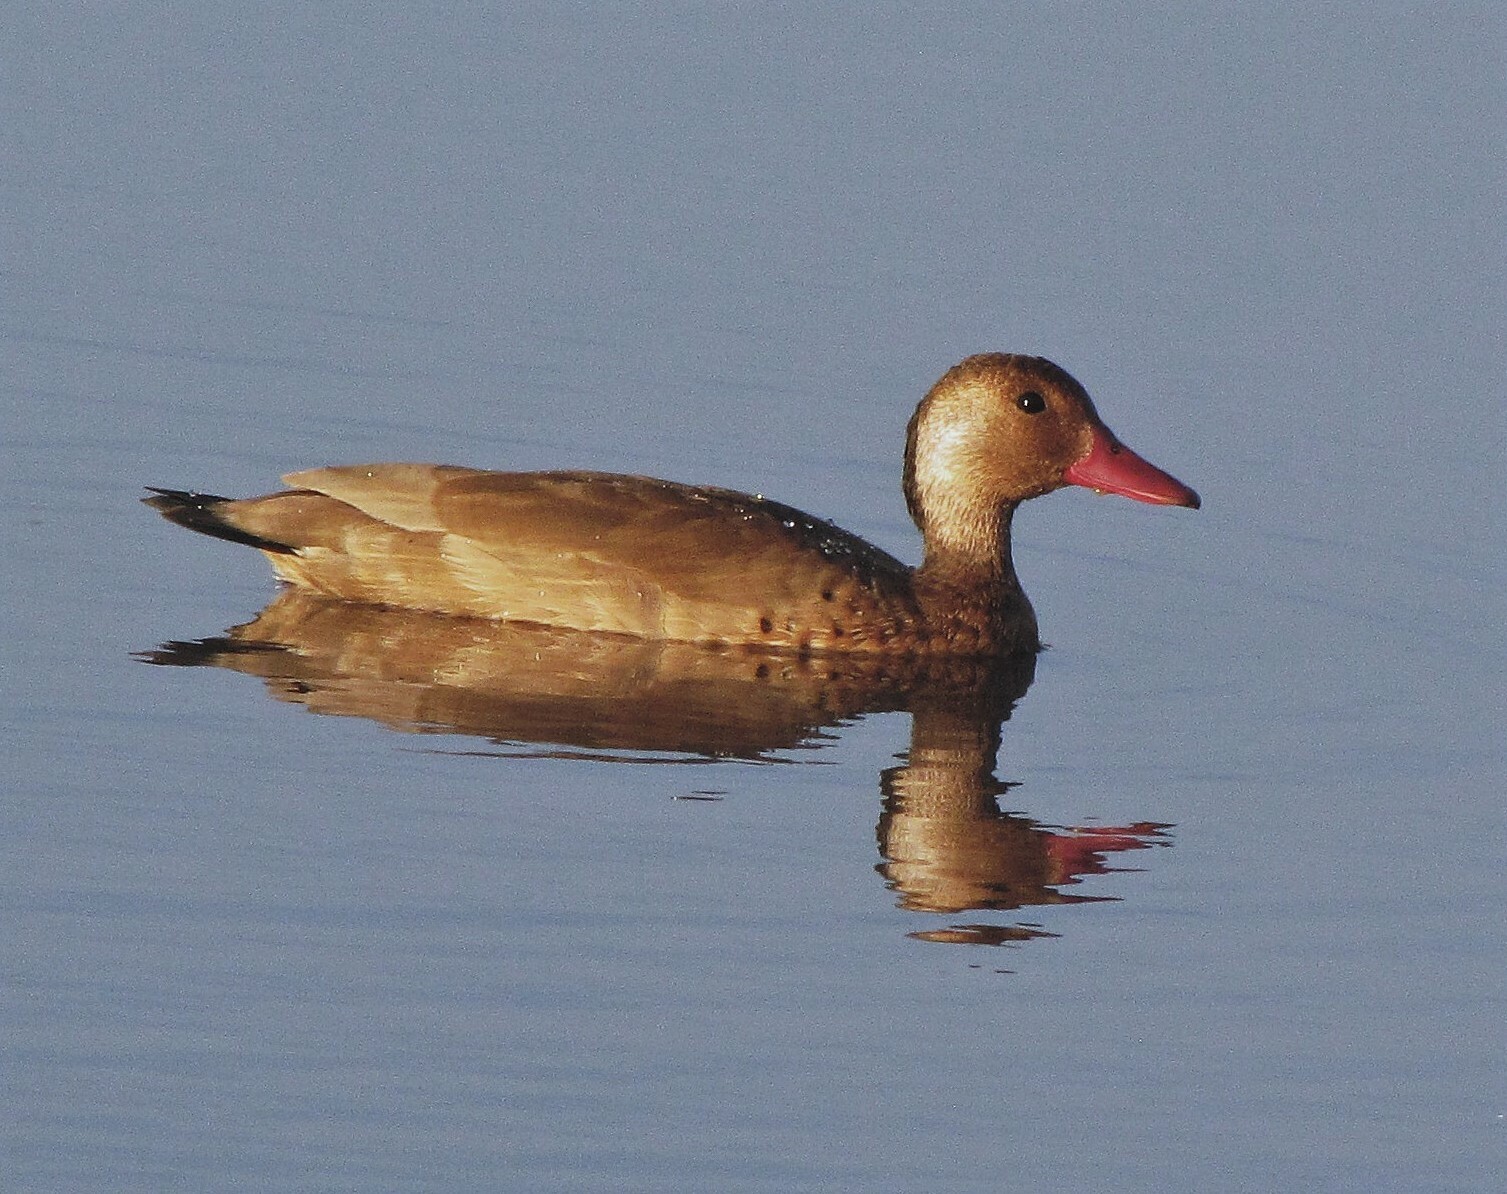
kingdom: Animalia
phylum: Chordata
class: Aves
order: Anseriformes
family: Anatidae
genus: Amazonetta
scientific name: Amazonetta brasiliensis
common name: Brazilian teal
